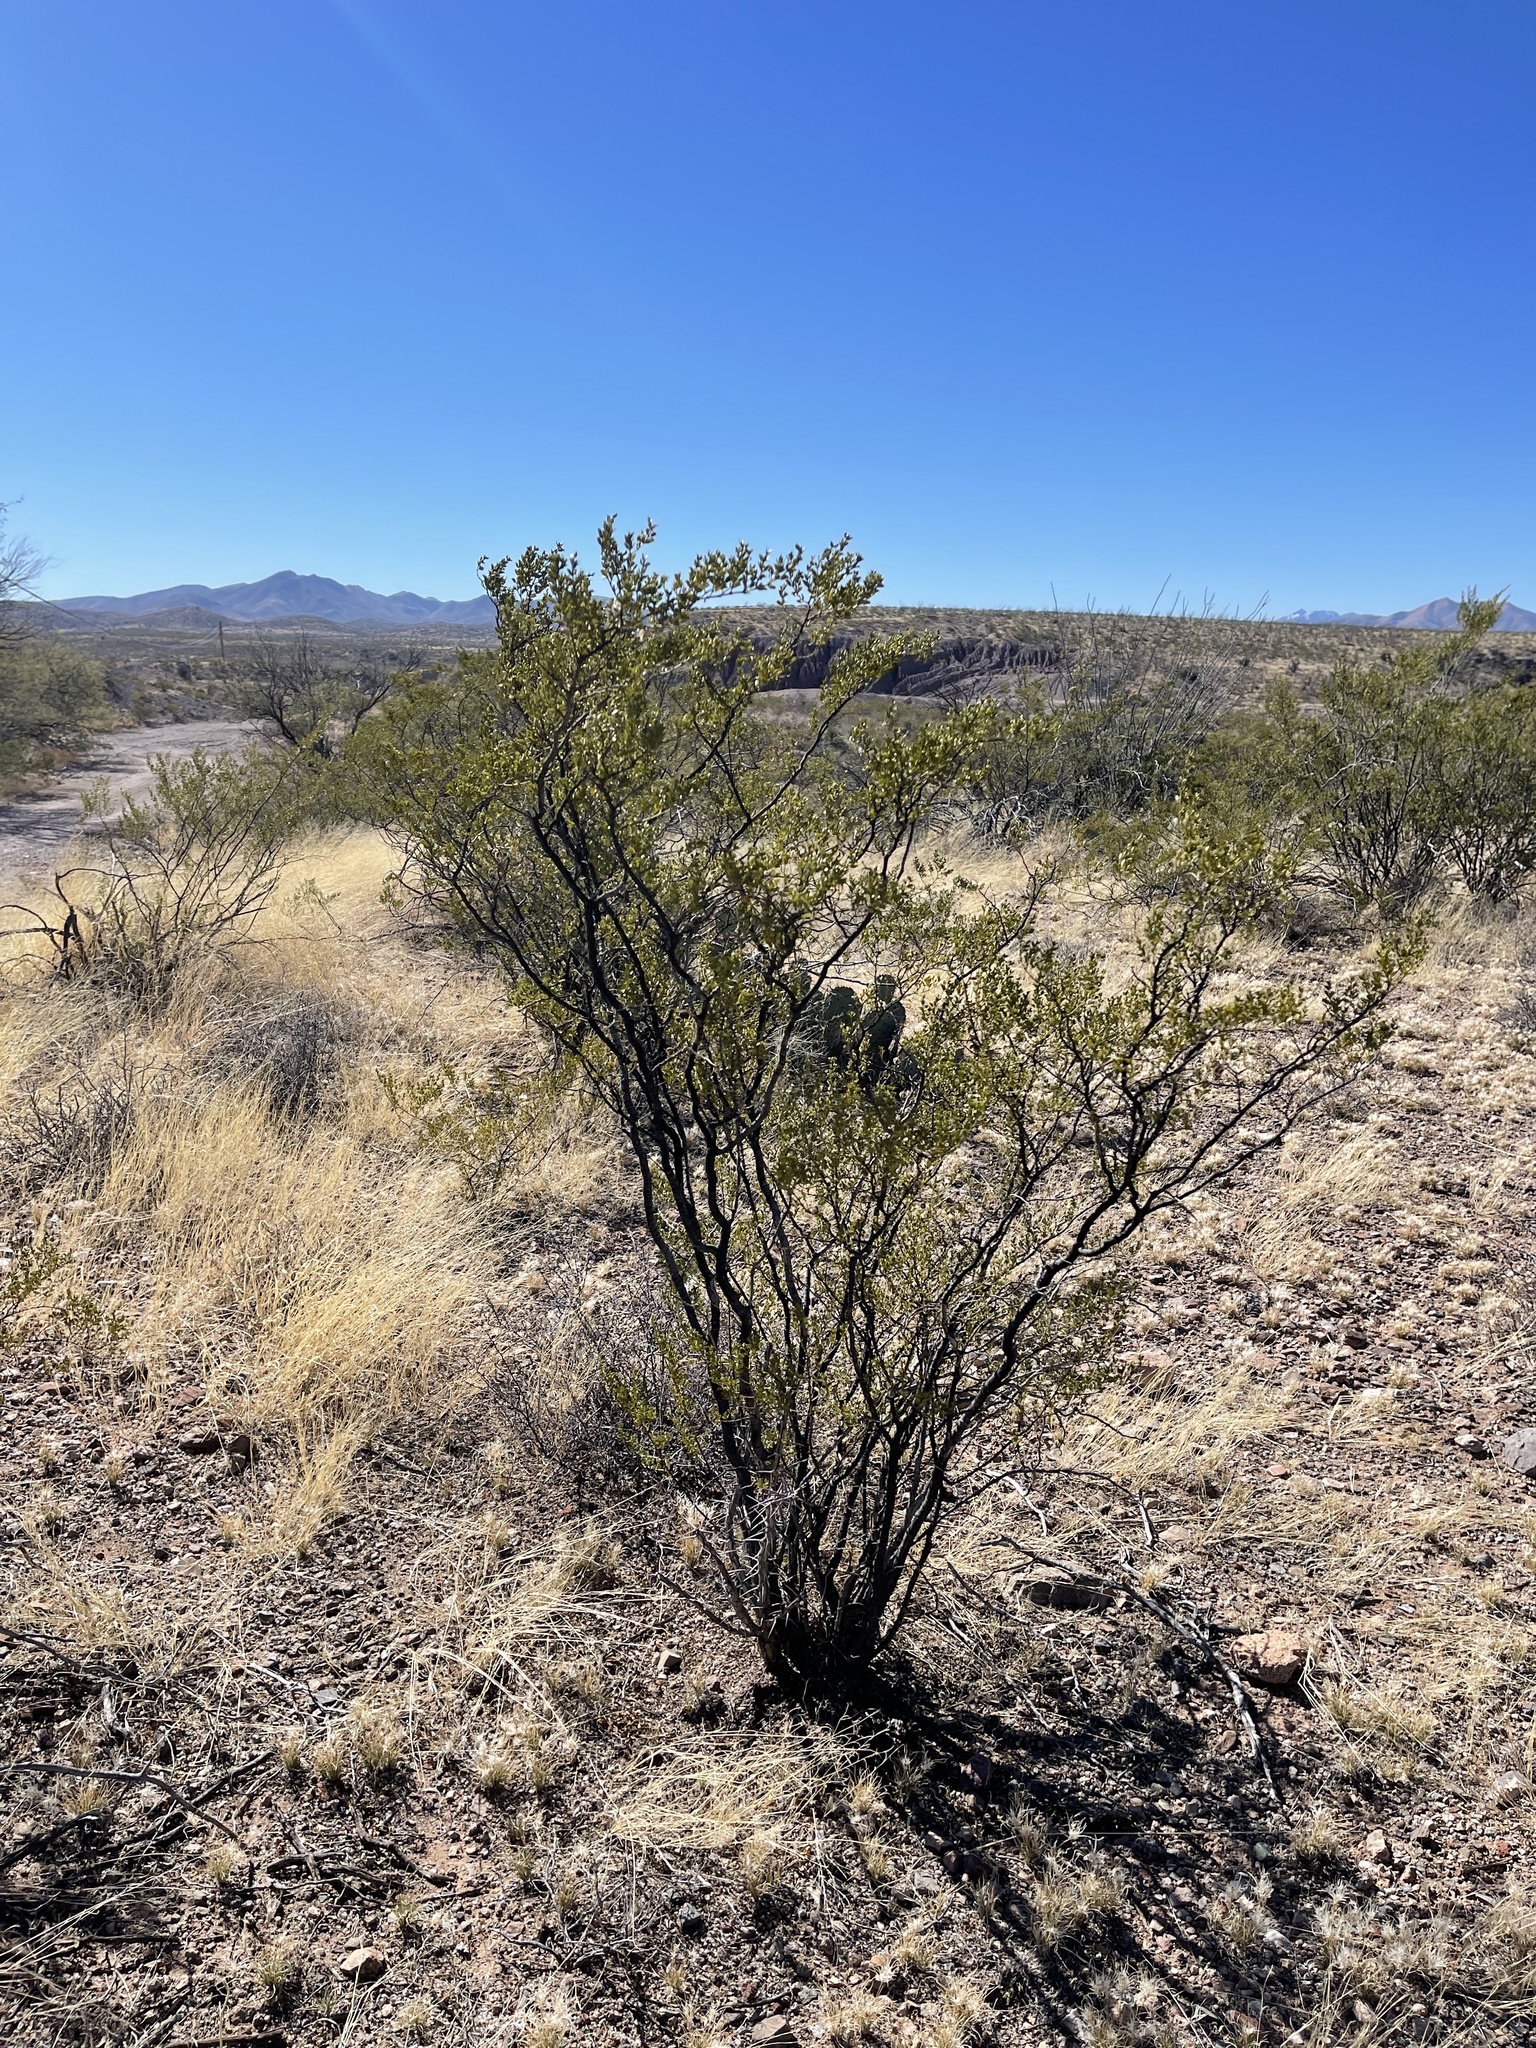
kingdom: Plantae
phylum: Tracheophyta
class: Magnoliopsida
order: Zygophyllales
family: Zygophyllaceae
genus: Larrea
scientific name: Larrea tridentata
